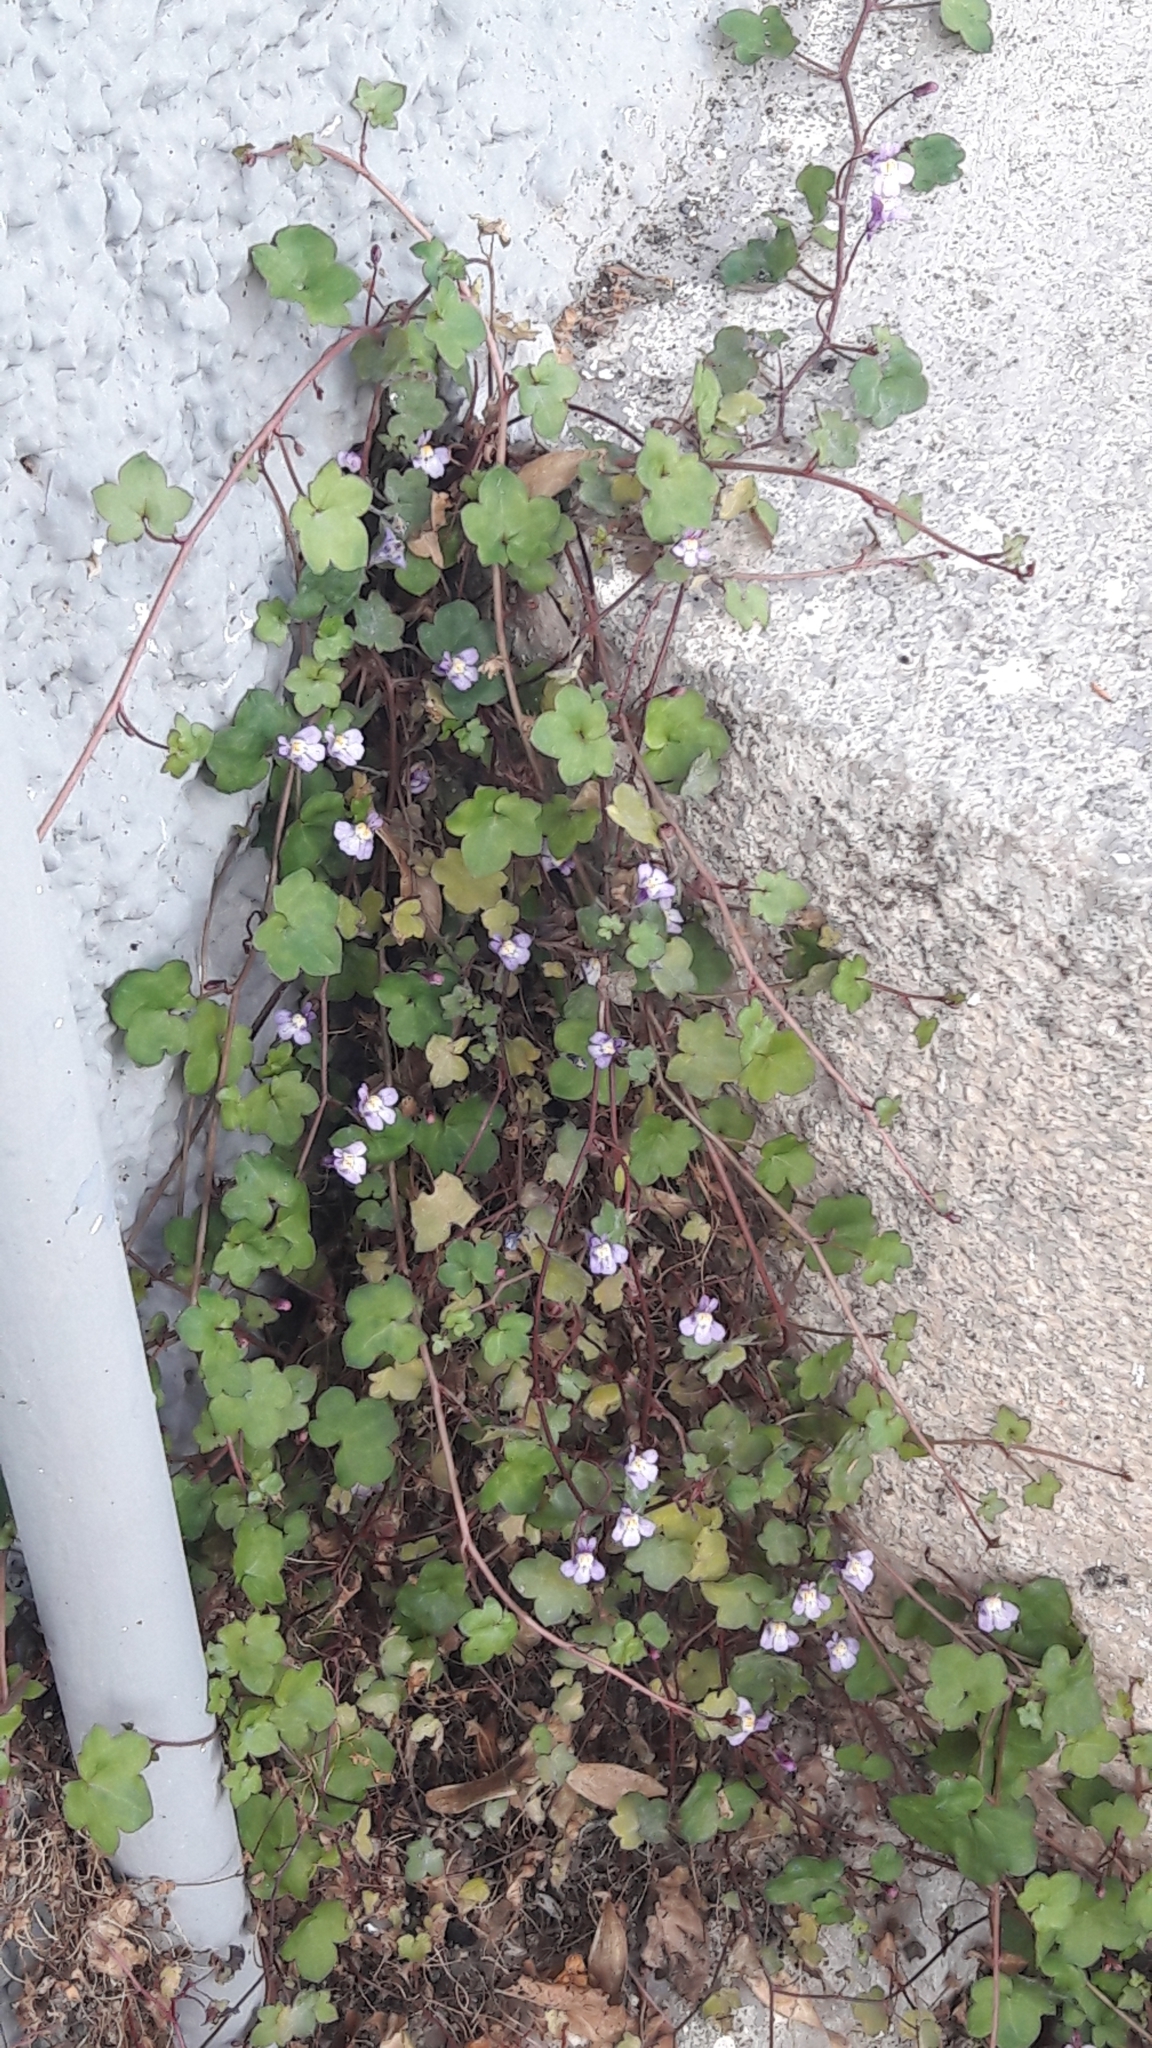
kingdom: Plantae
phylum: Tracheophyta
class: Magnoliopsida
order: Lamiales
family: Plantaginaceae
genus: Cymbalaria
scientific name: Cymbalaria muralis
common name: Ivy-leaved toadflax
